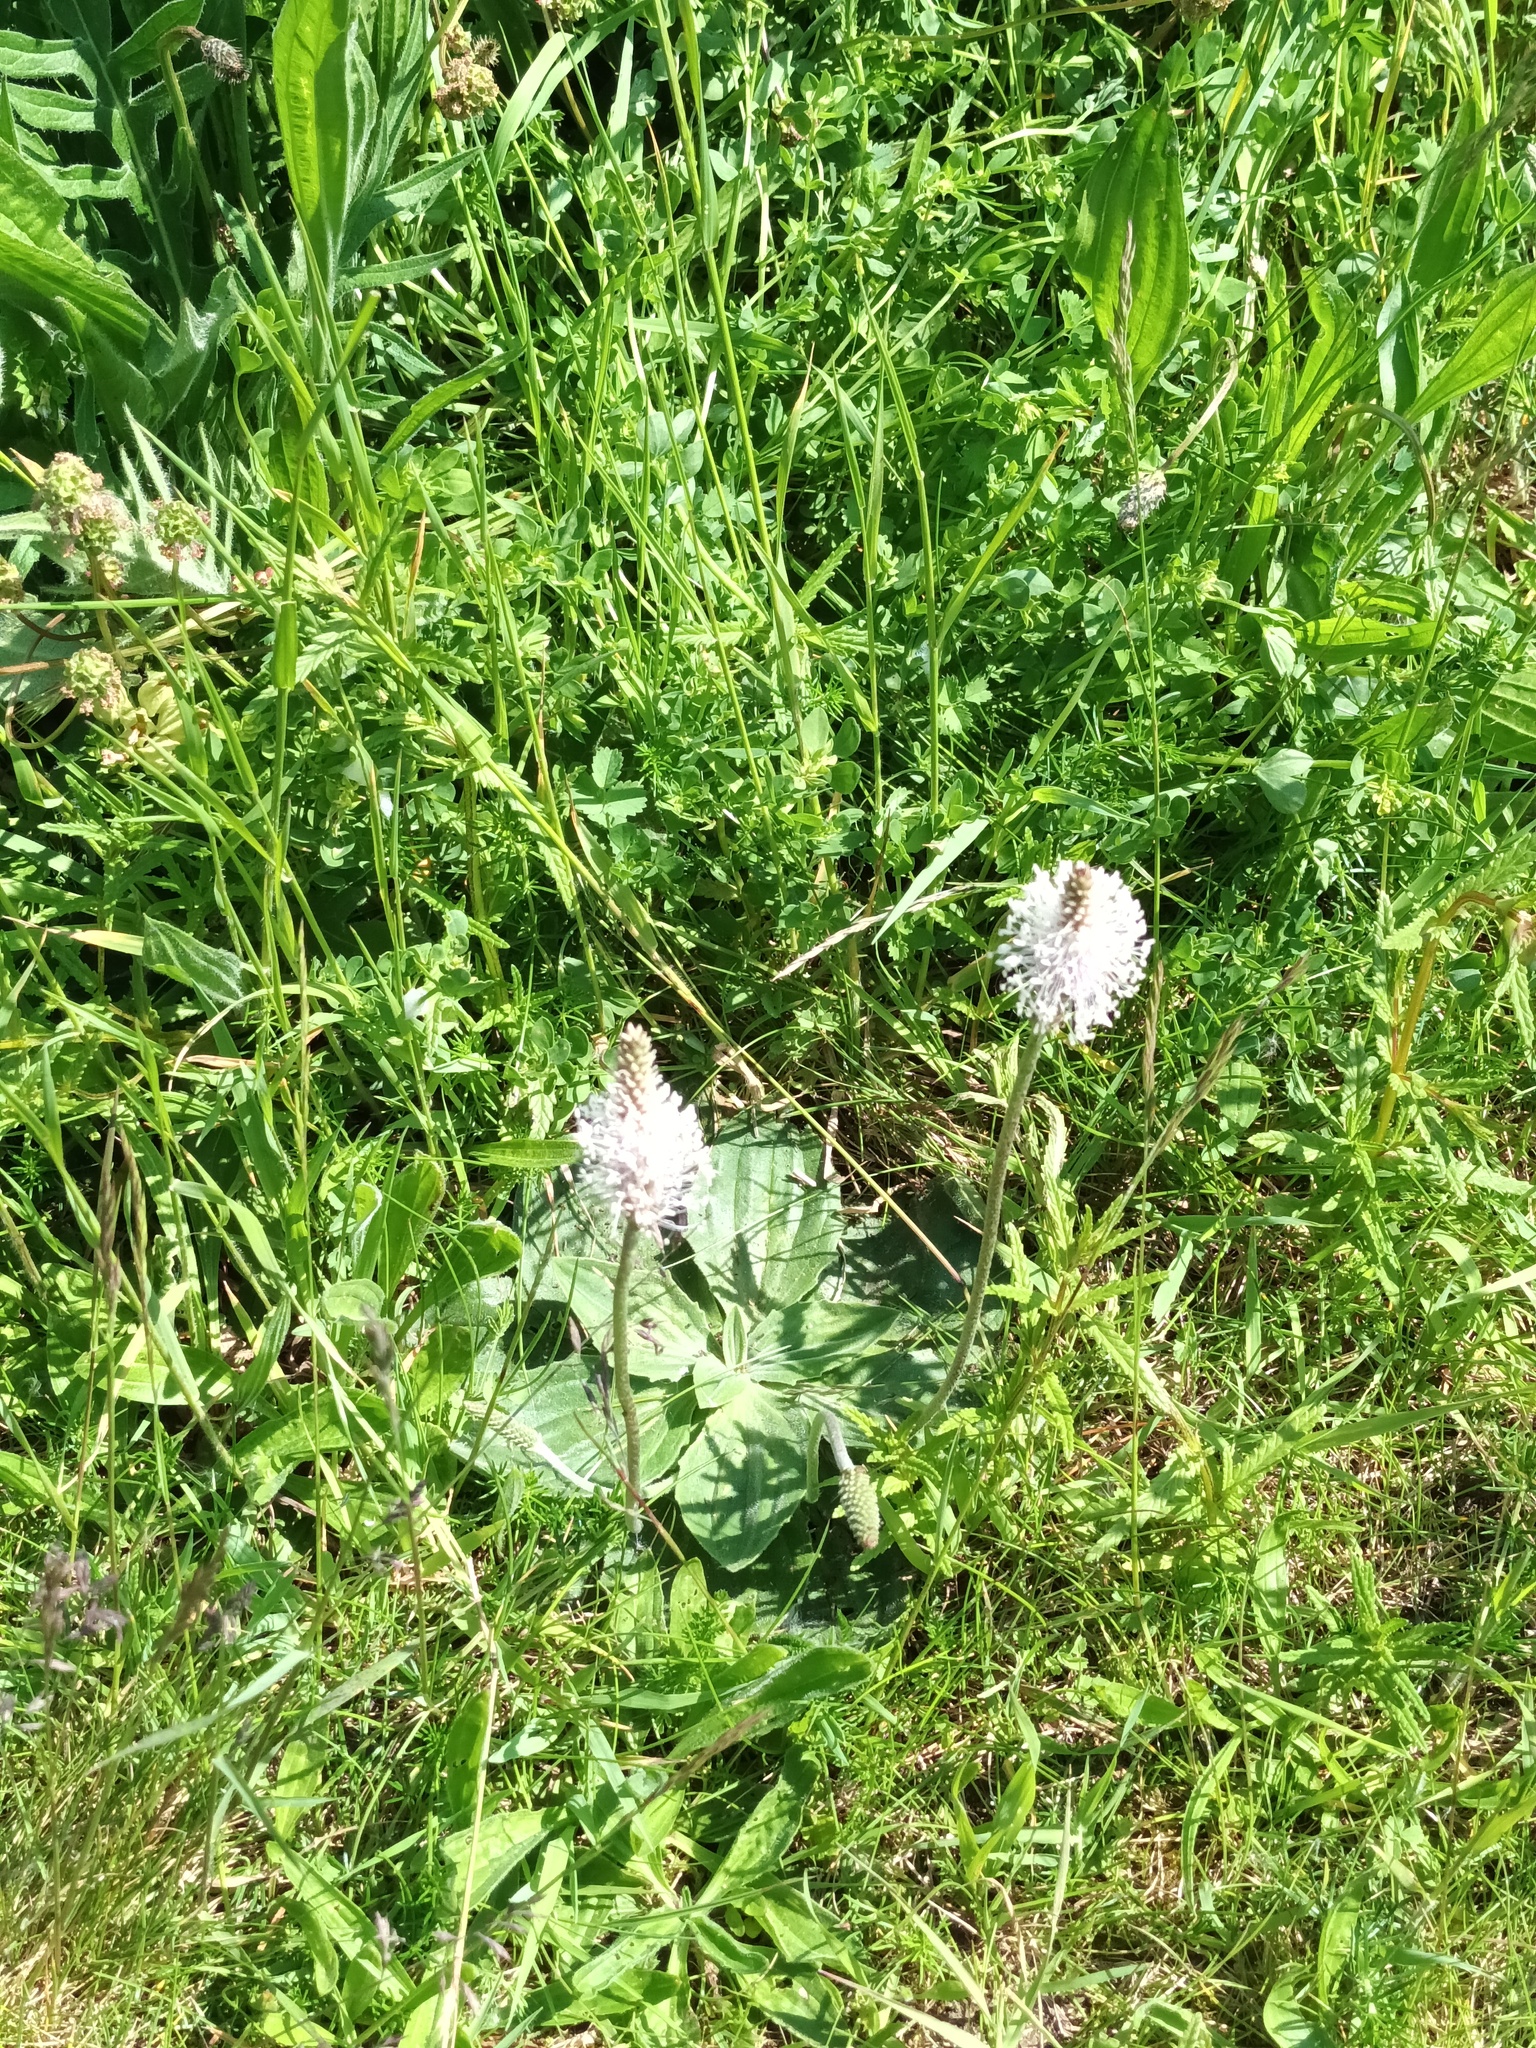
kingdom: Plantae
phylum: Tracheophyta
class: Magnoliopsida
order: Lamiales
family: Plantaginaceae
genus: Plantago
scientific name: Plantago media
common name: Hoary plantain
